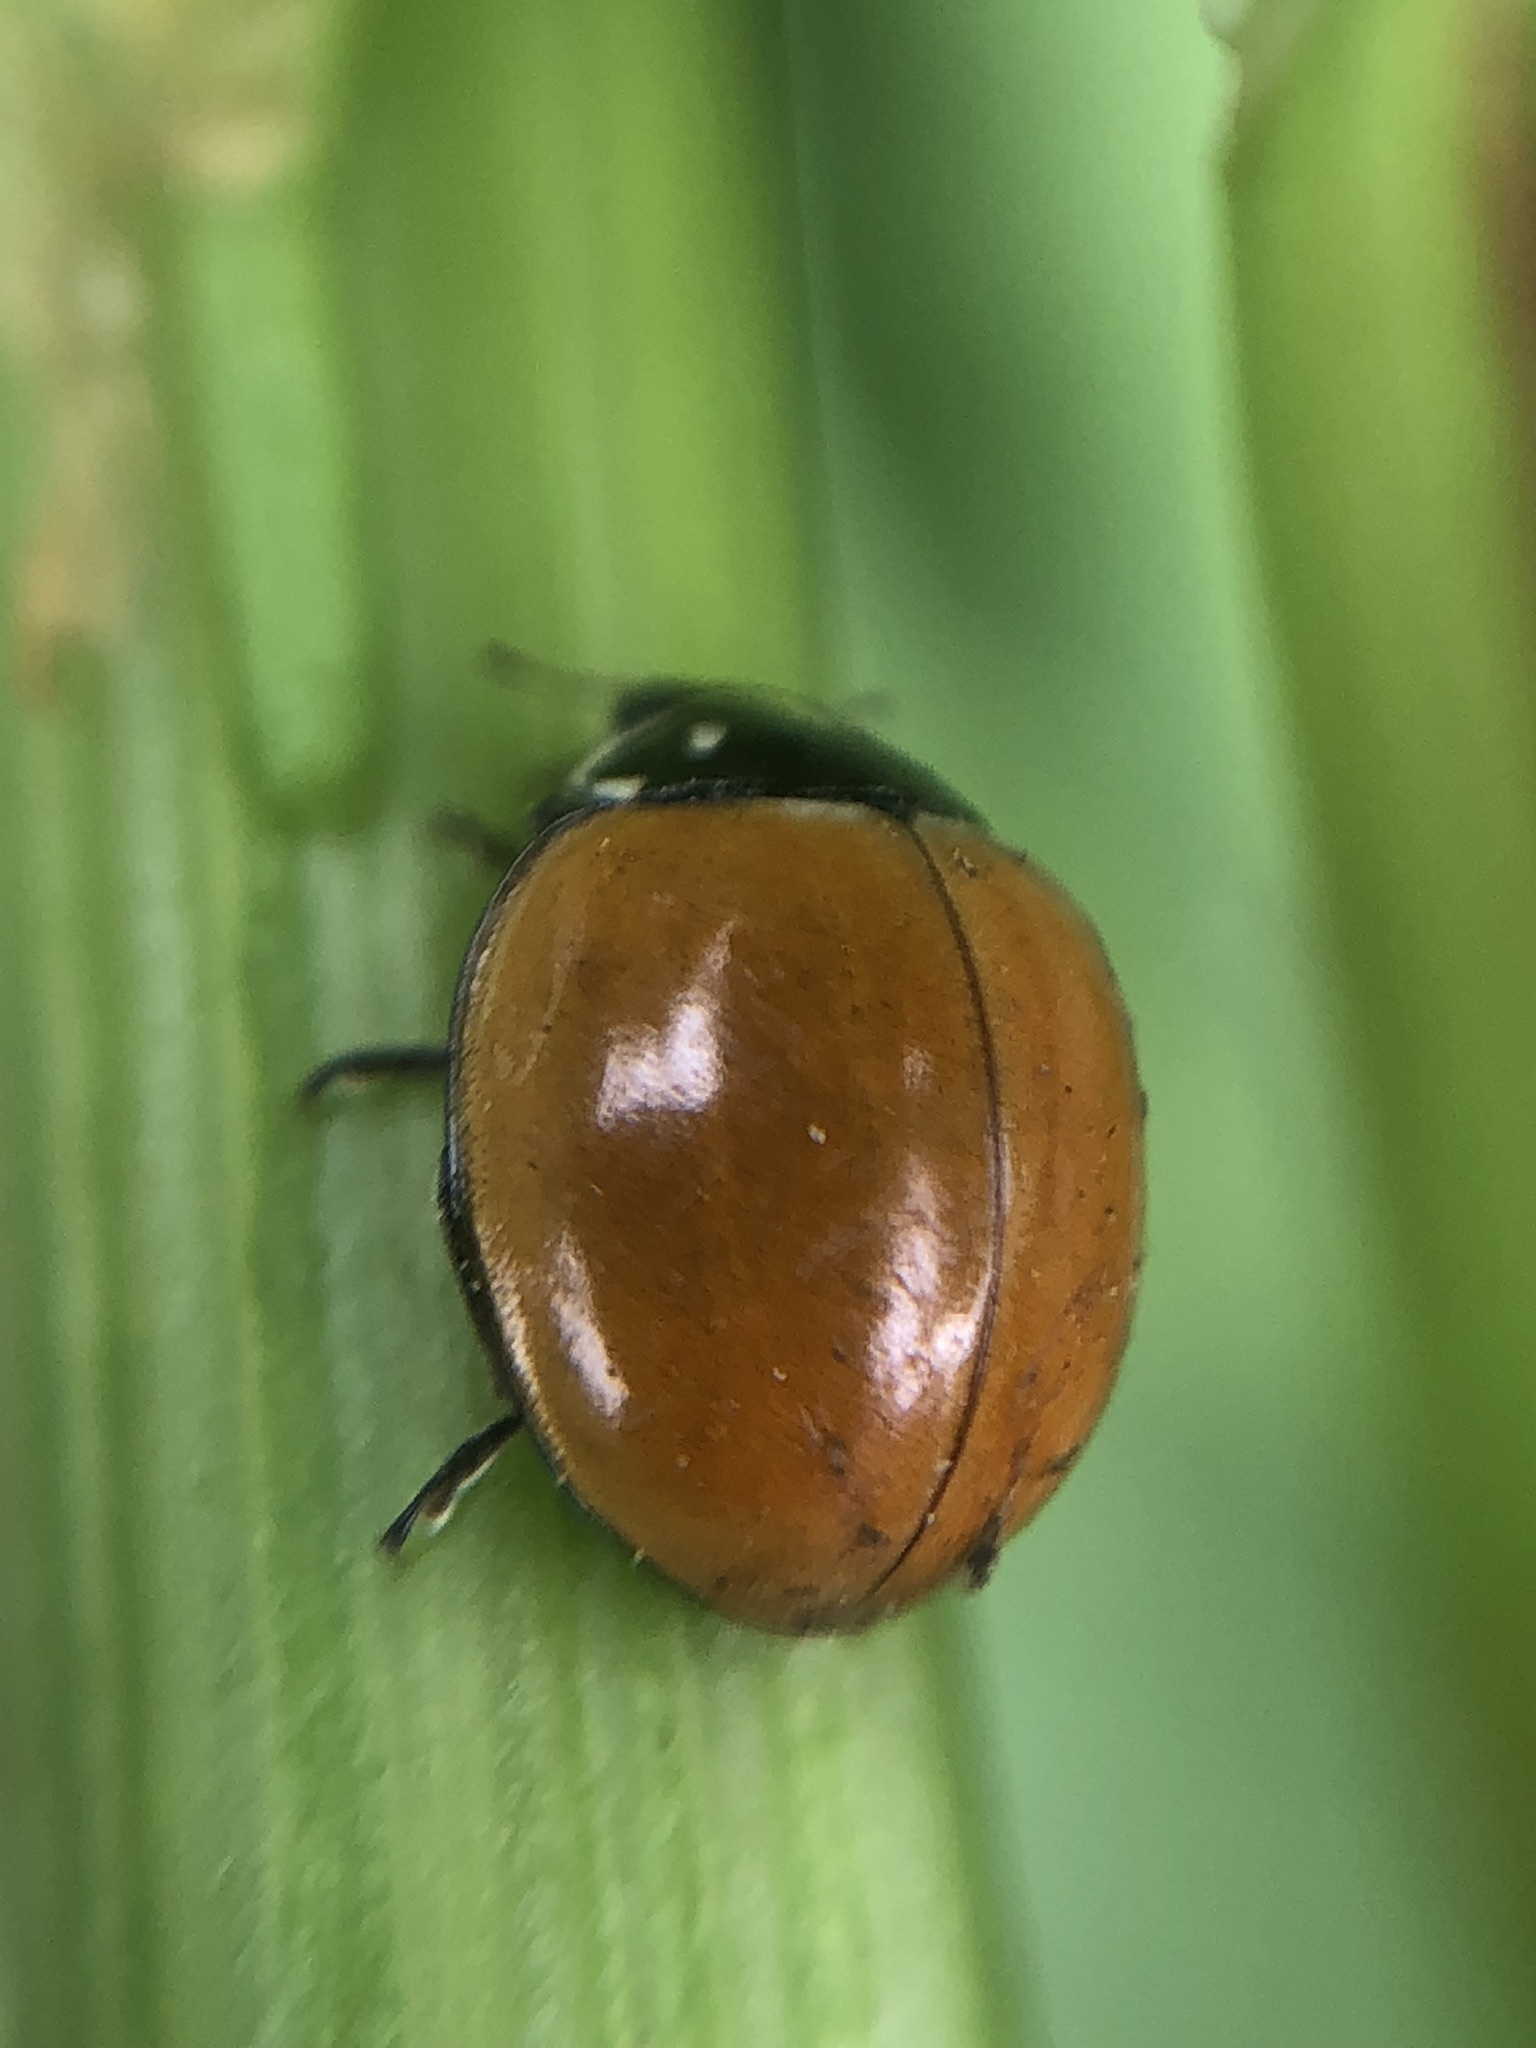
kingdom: Animalia
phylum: Arthropoda
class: Insecta
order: Coleoptera
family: Coccinellidae
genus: Cycloneda
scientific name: Cycloneda sanguinea
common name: Ladybird beetle
